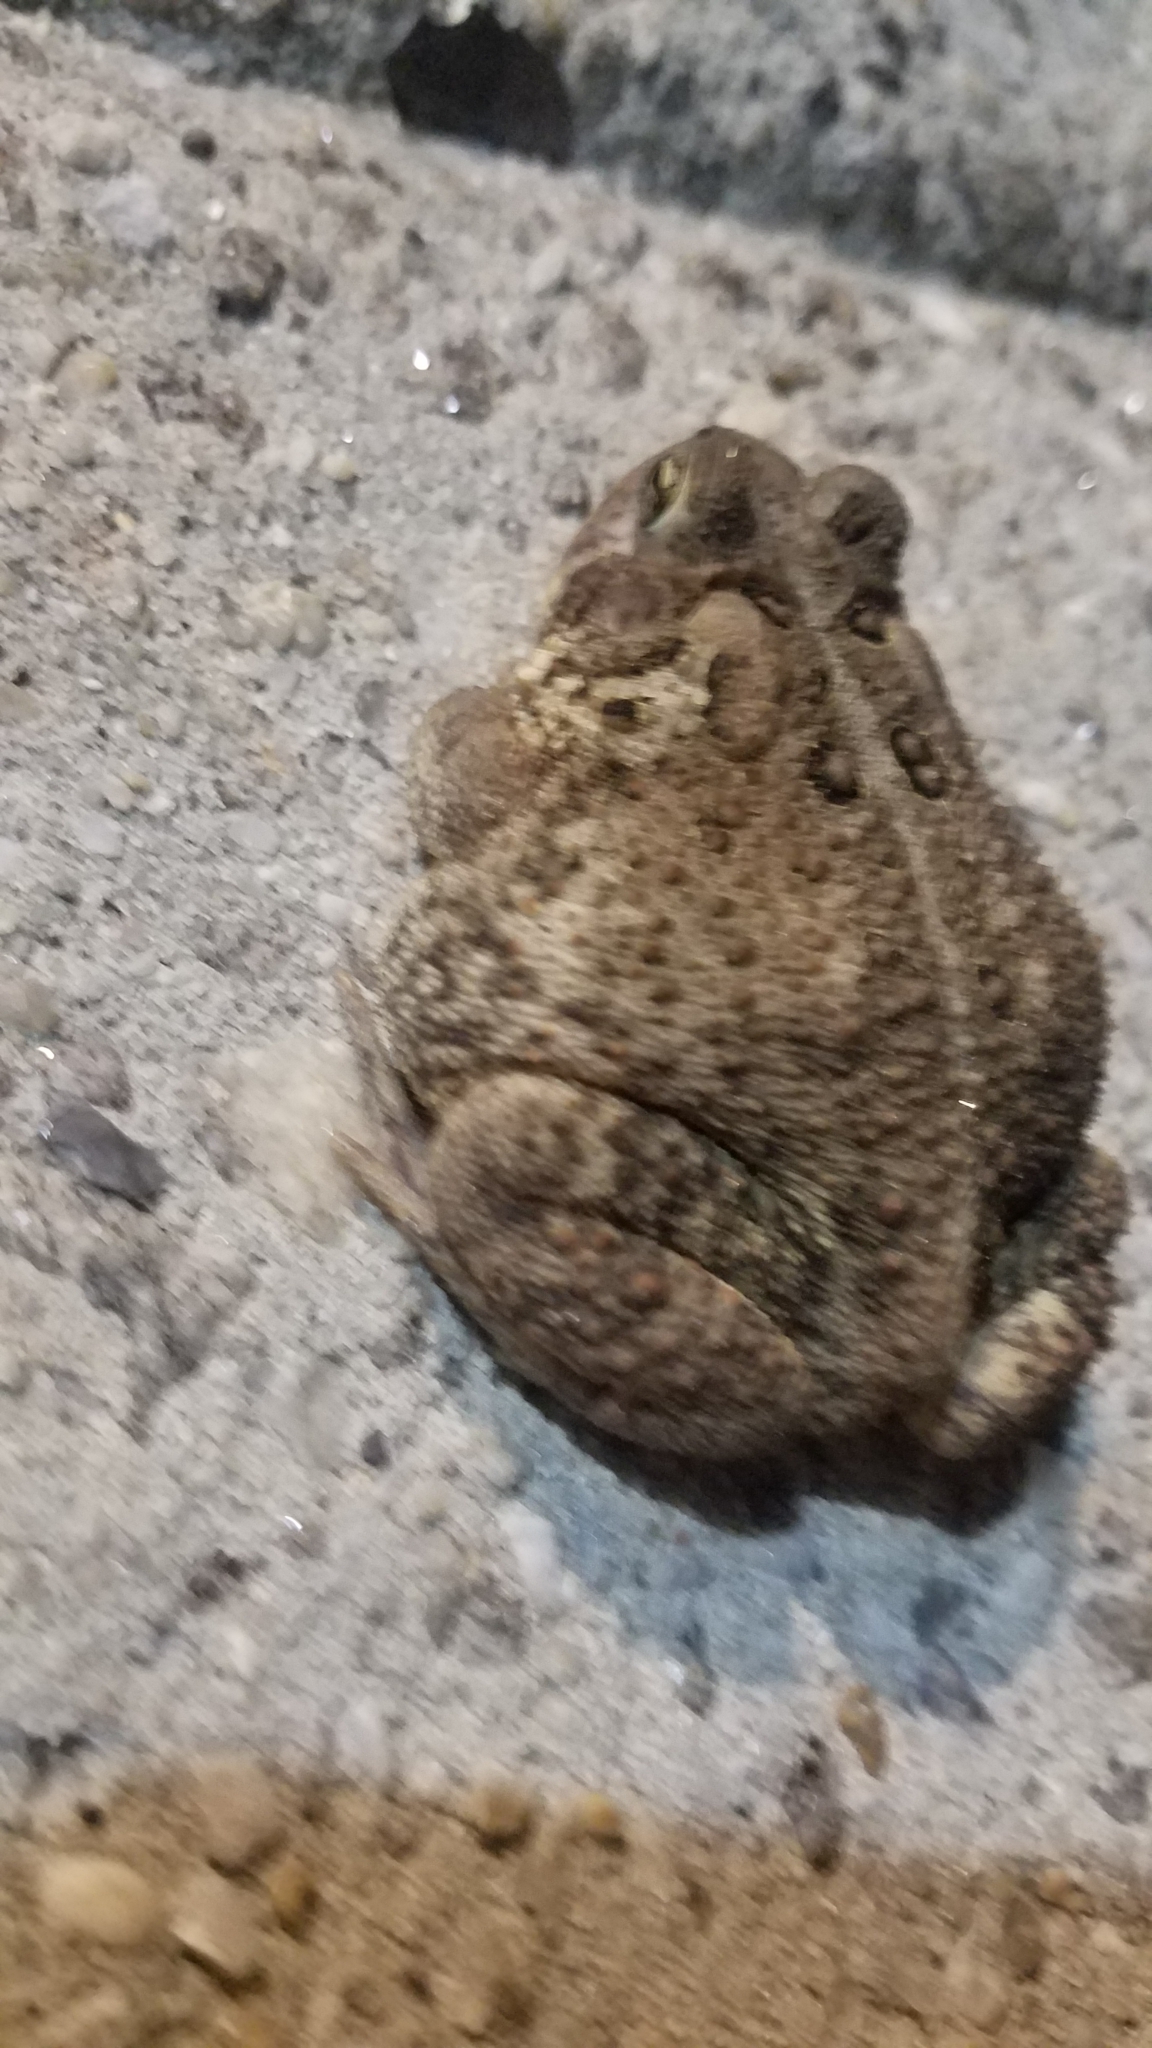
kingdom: Animalia
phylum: Chordata
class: Amphibia
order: Anura
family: Bufonidae
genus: Anaxyrus
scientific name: Anaxyrus americanus
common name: American toad
